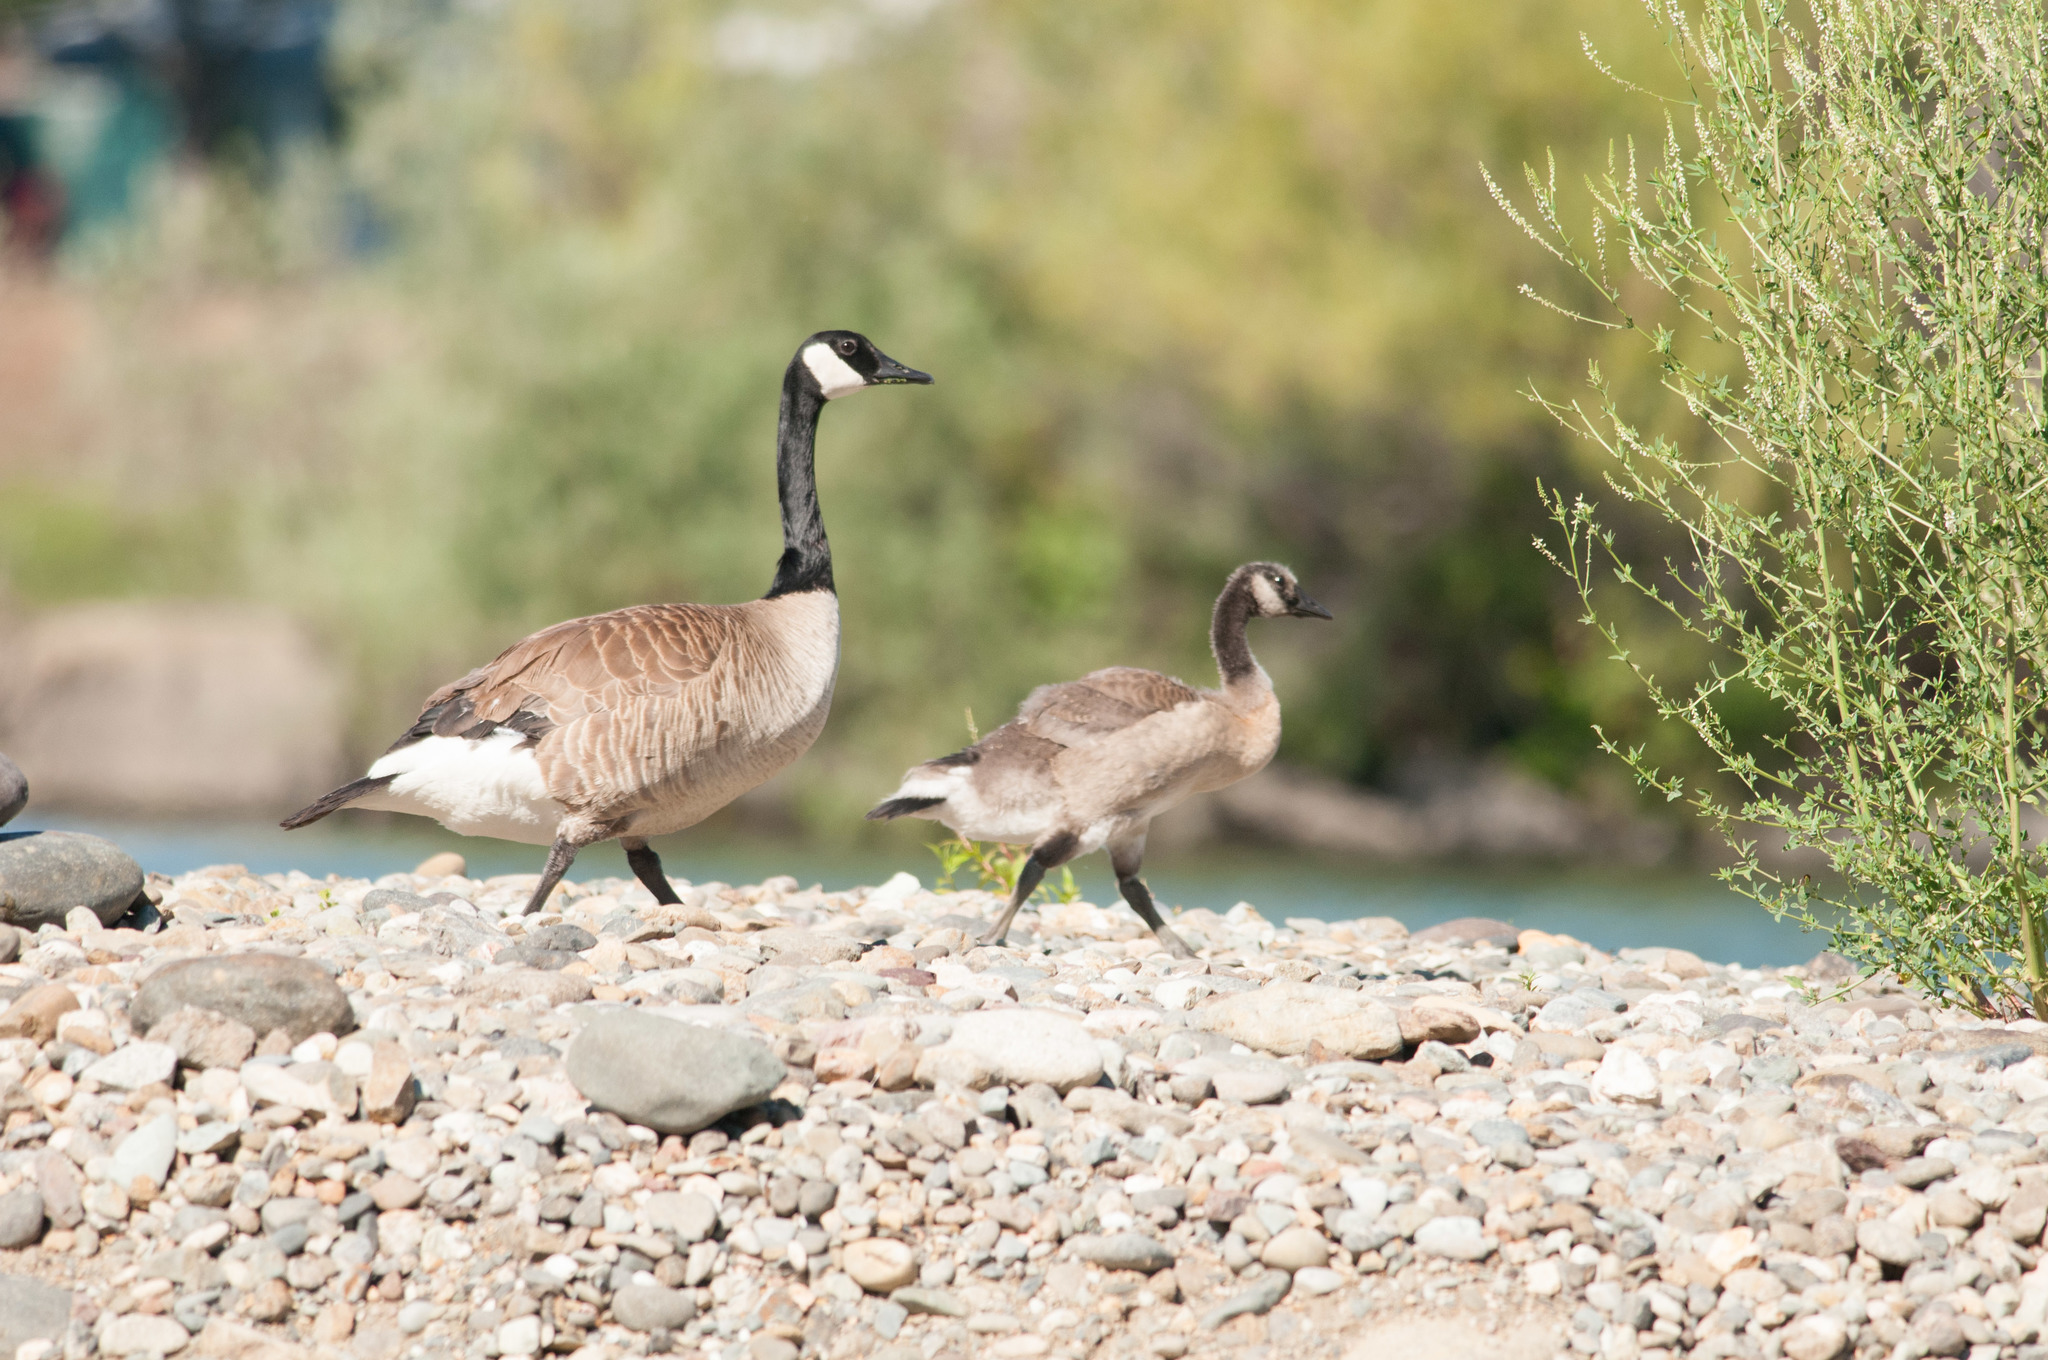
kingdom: Animalia
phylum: Chordata
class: Aves
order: Anseriformes
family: Anatidae
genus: Branta
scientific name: Branta canadensis
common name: Canada goose
